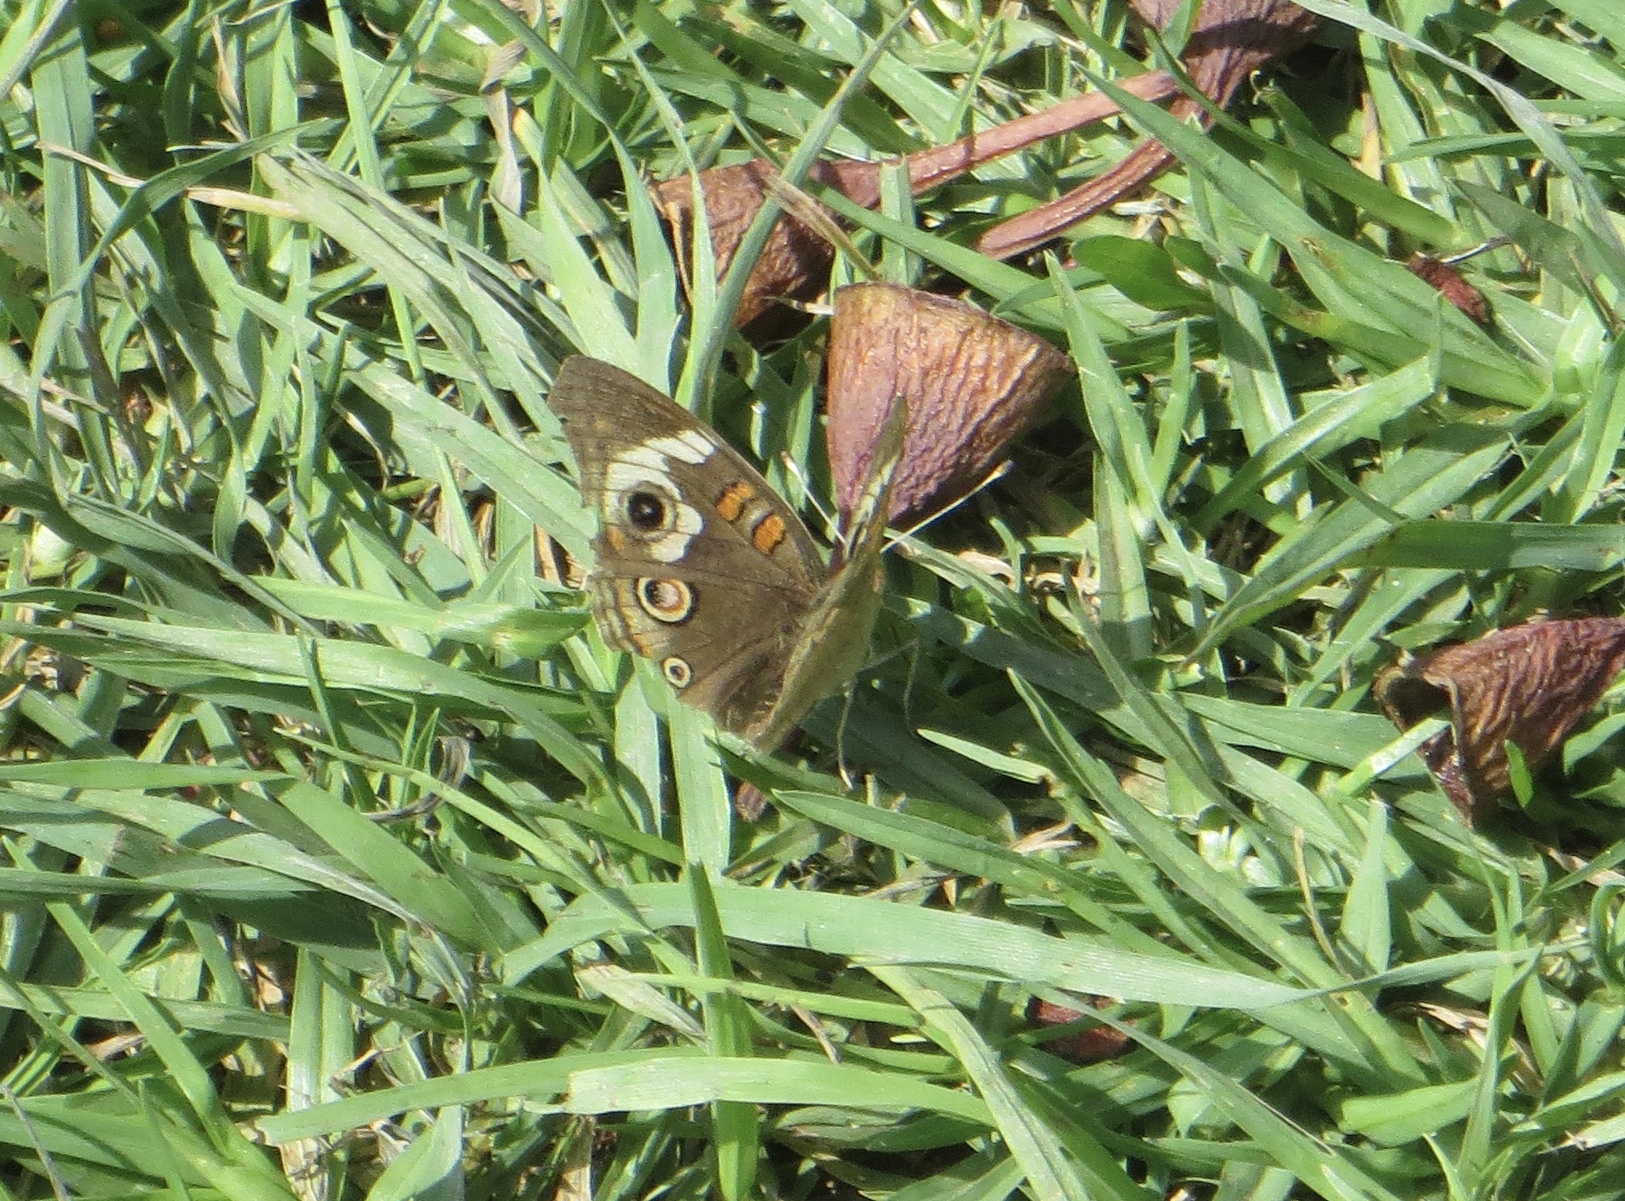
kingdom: Animalia
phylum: Arthropoda
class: Insecta
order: Lepidoptera
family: Nymphalidae
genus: Junonia
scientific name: Junonia grisea
